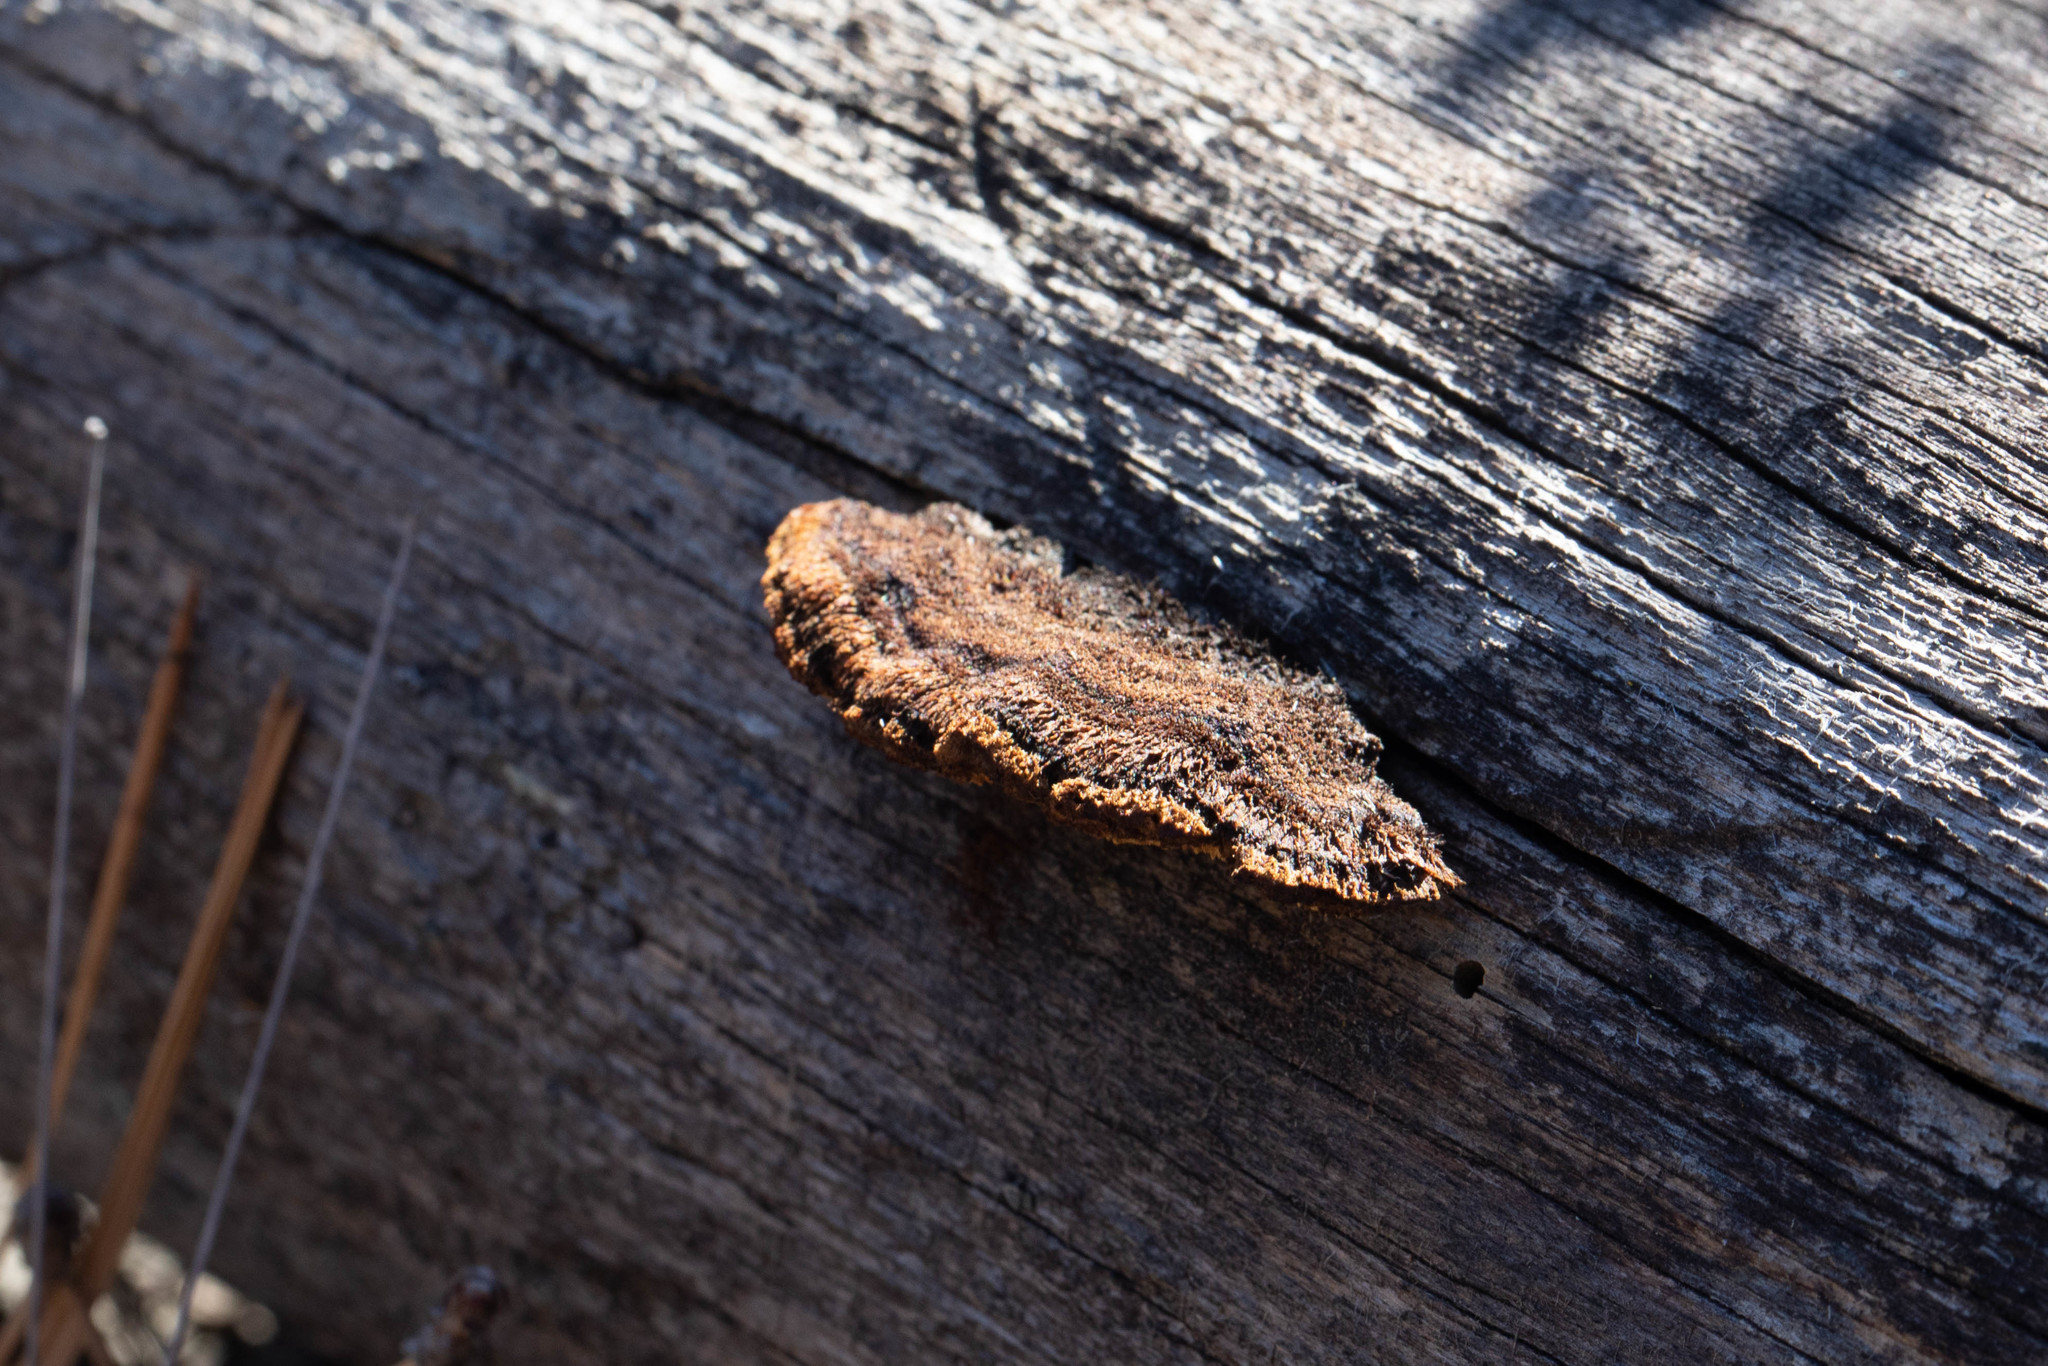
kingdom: Fungi
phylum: Basidiomycota
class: Agaricomycetes
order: Gloeophyllales
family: Gloeophyllaceae
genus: Gloeophyllum
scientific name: Gloeophyllum sepiarium
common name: Conifer mazegill
